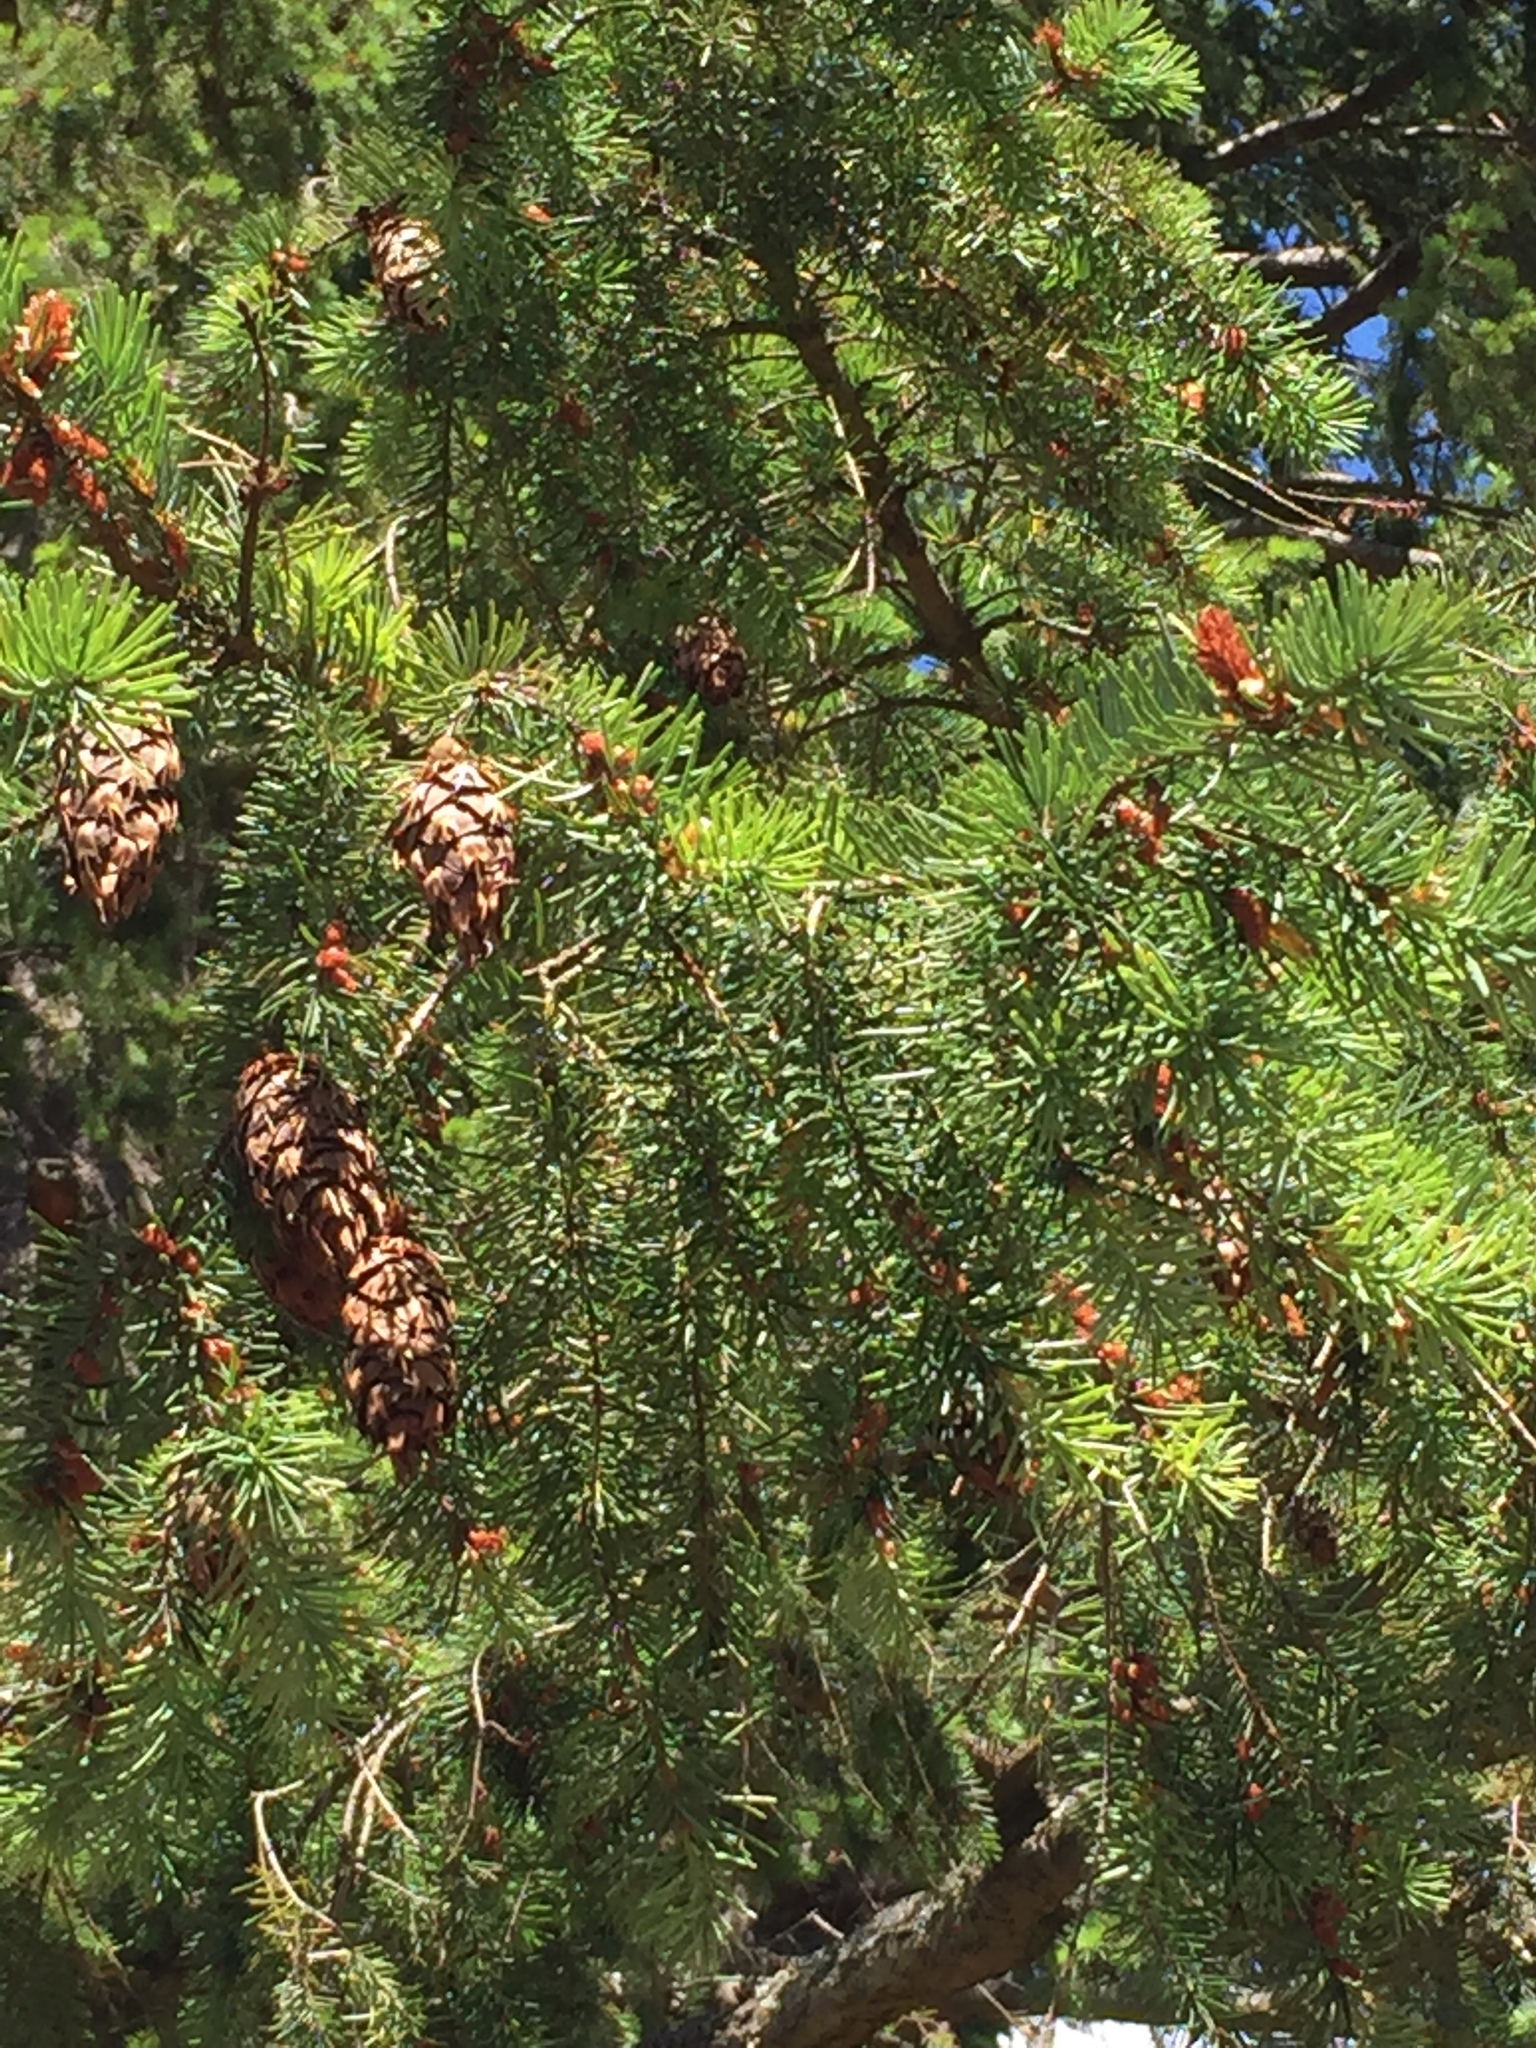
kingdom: Plantae
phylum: Tracheophyta
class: Pinopsida
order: Pinales
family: Pinaceae
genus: Pseudotsuga
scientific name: Pseudotsuga menziesii
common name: Douglas fir
